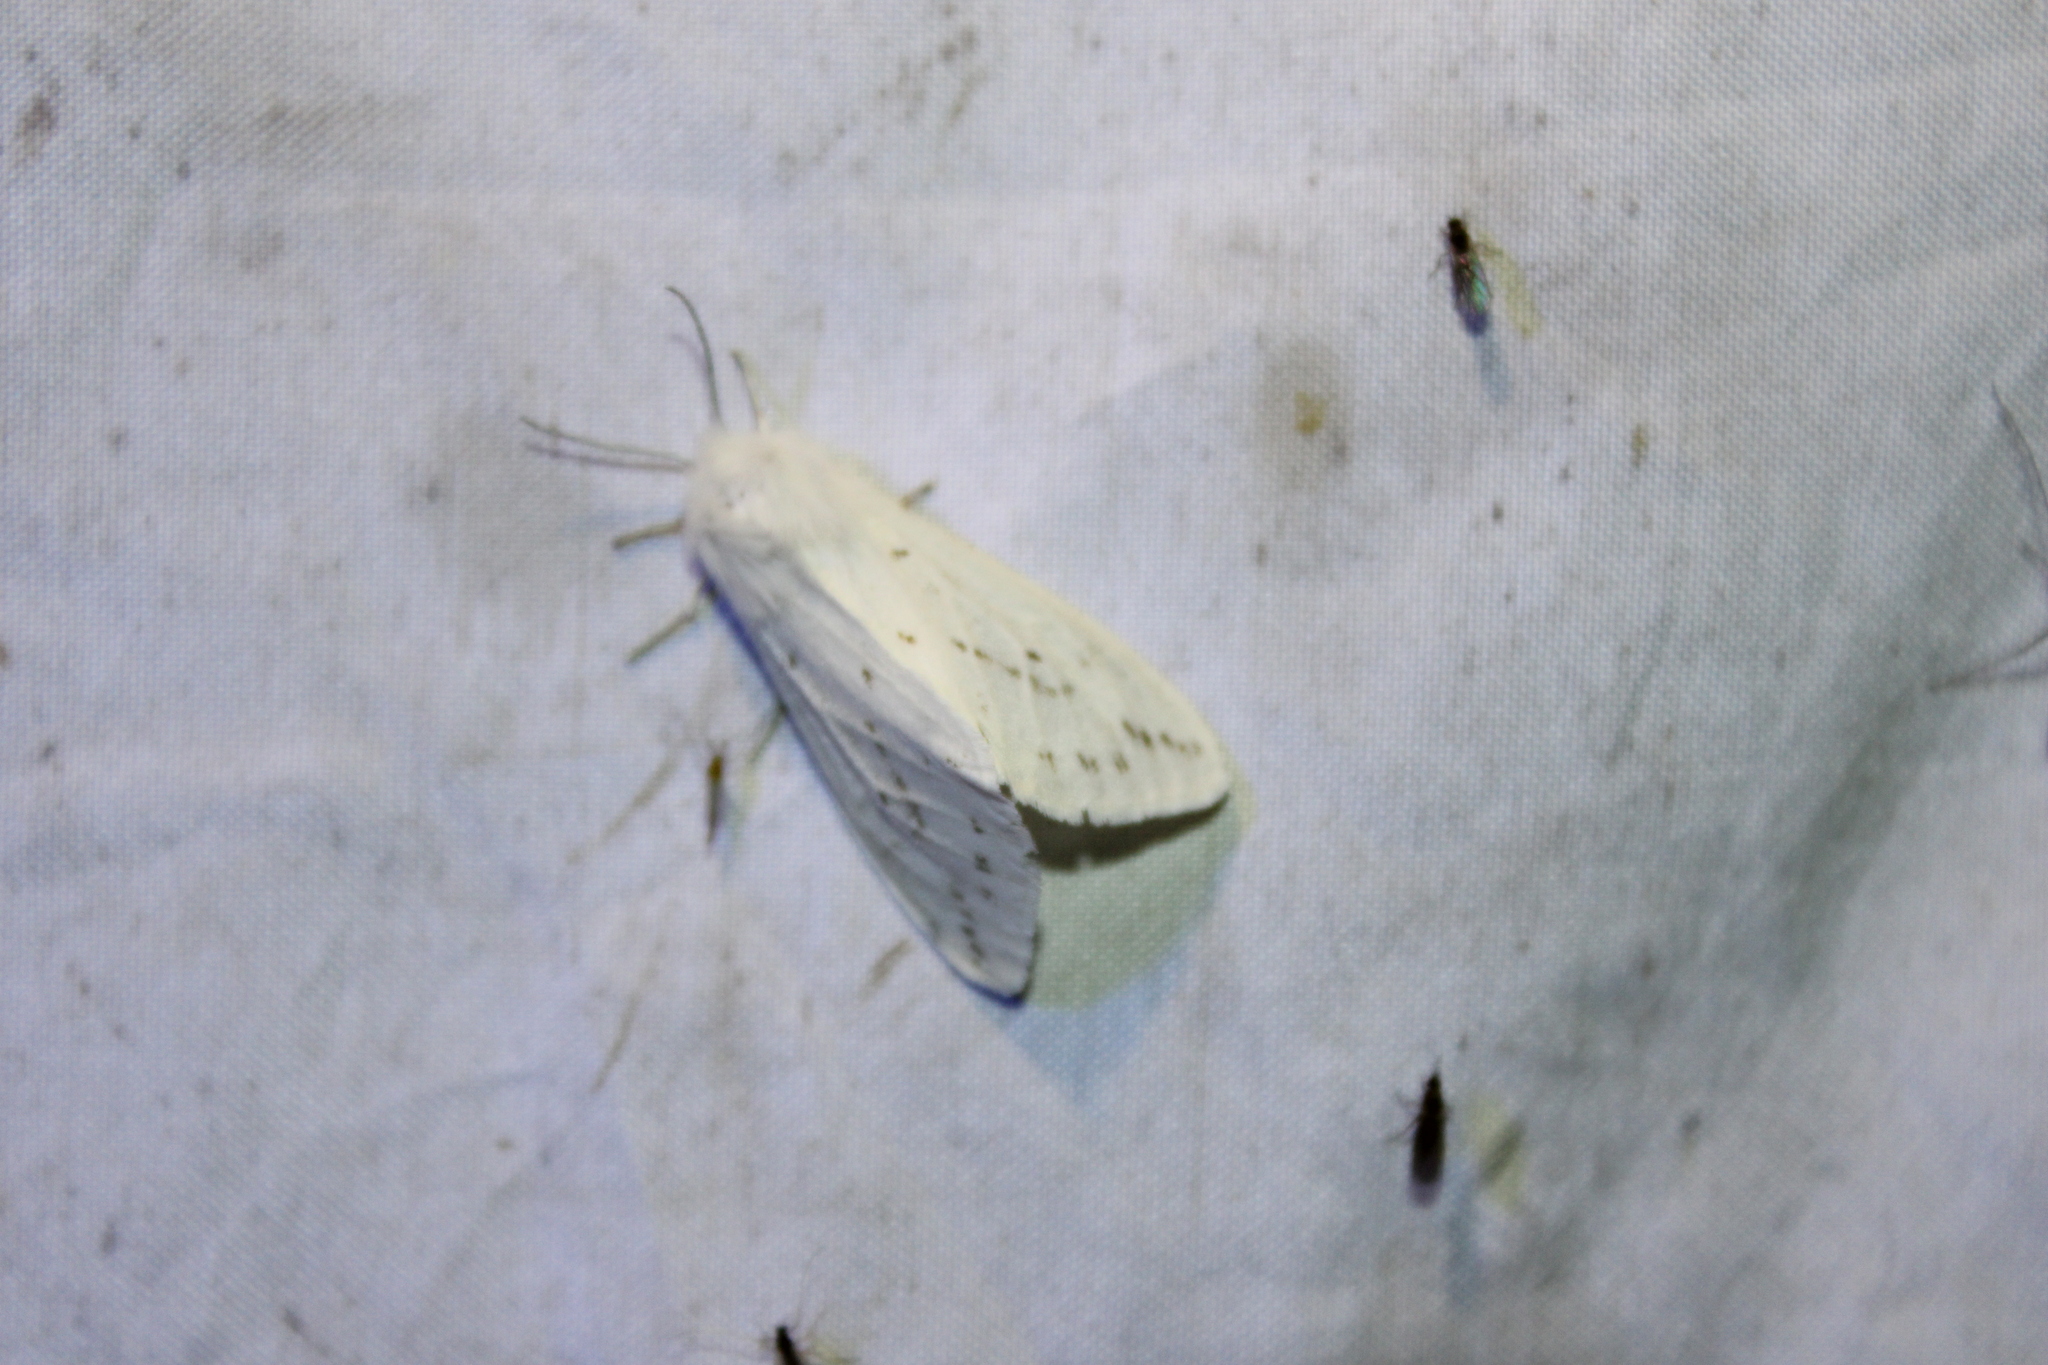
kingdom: Animalia
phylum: Arthropoda
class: Insecta
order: Lepidoptera
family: Erebidae
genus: Spilosoma
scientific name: Spilosoma congrua
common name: Agreeable tiger moth
